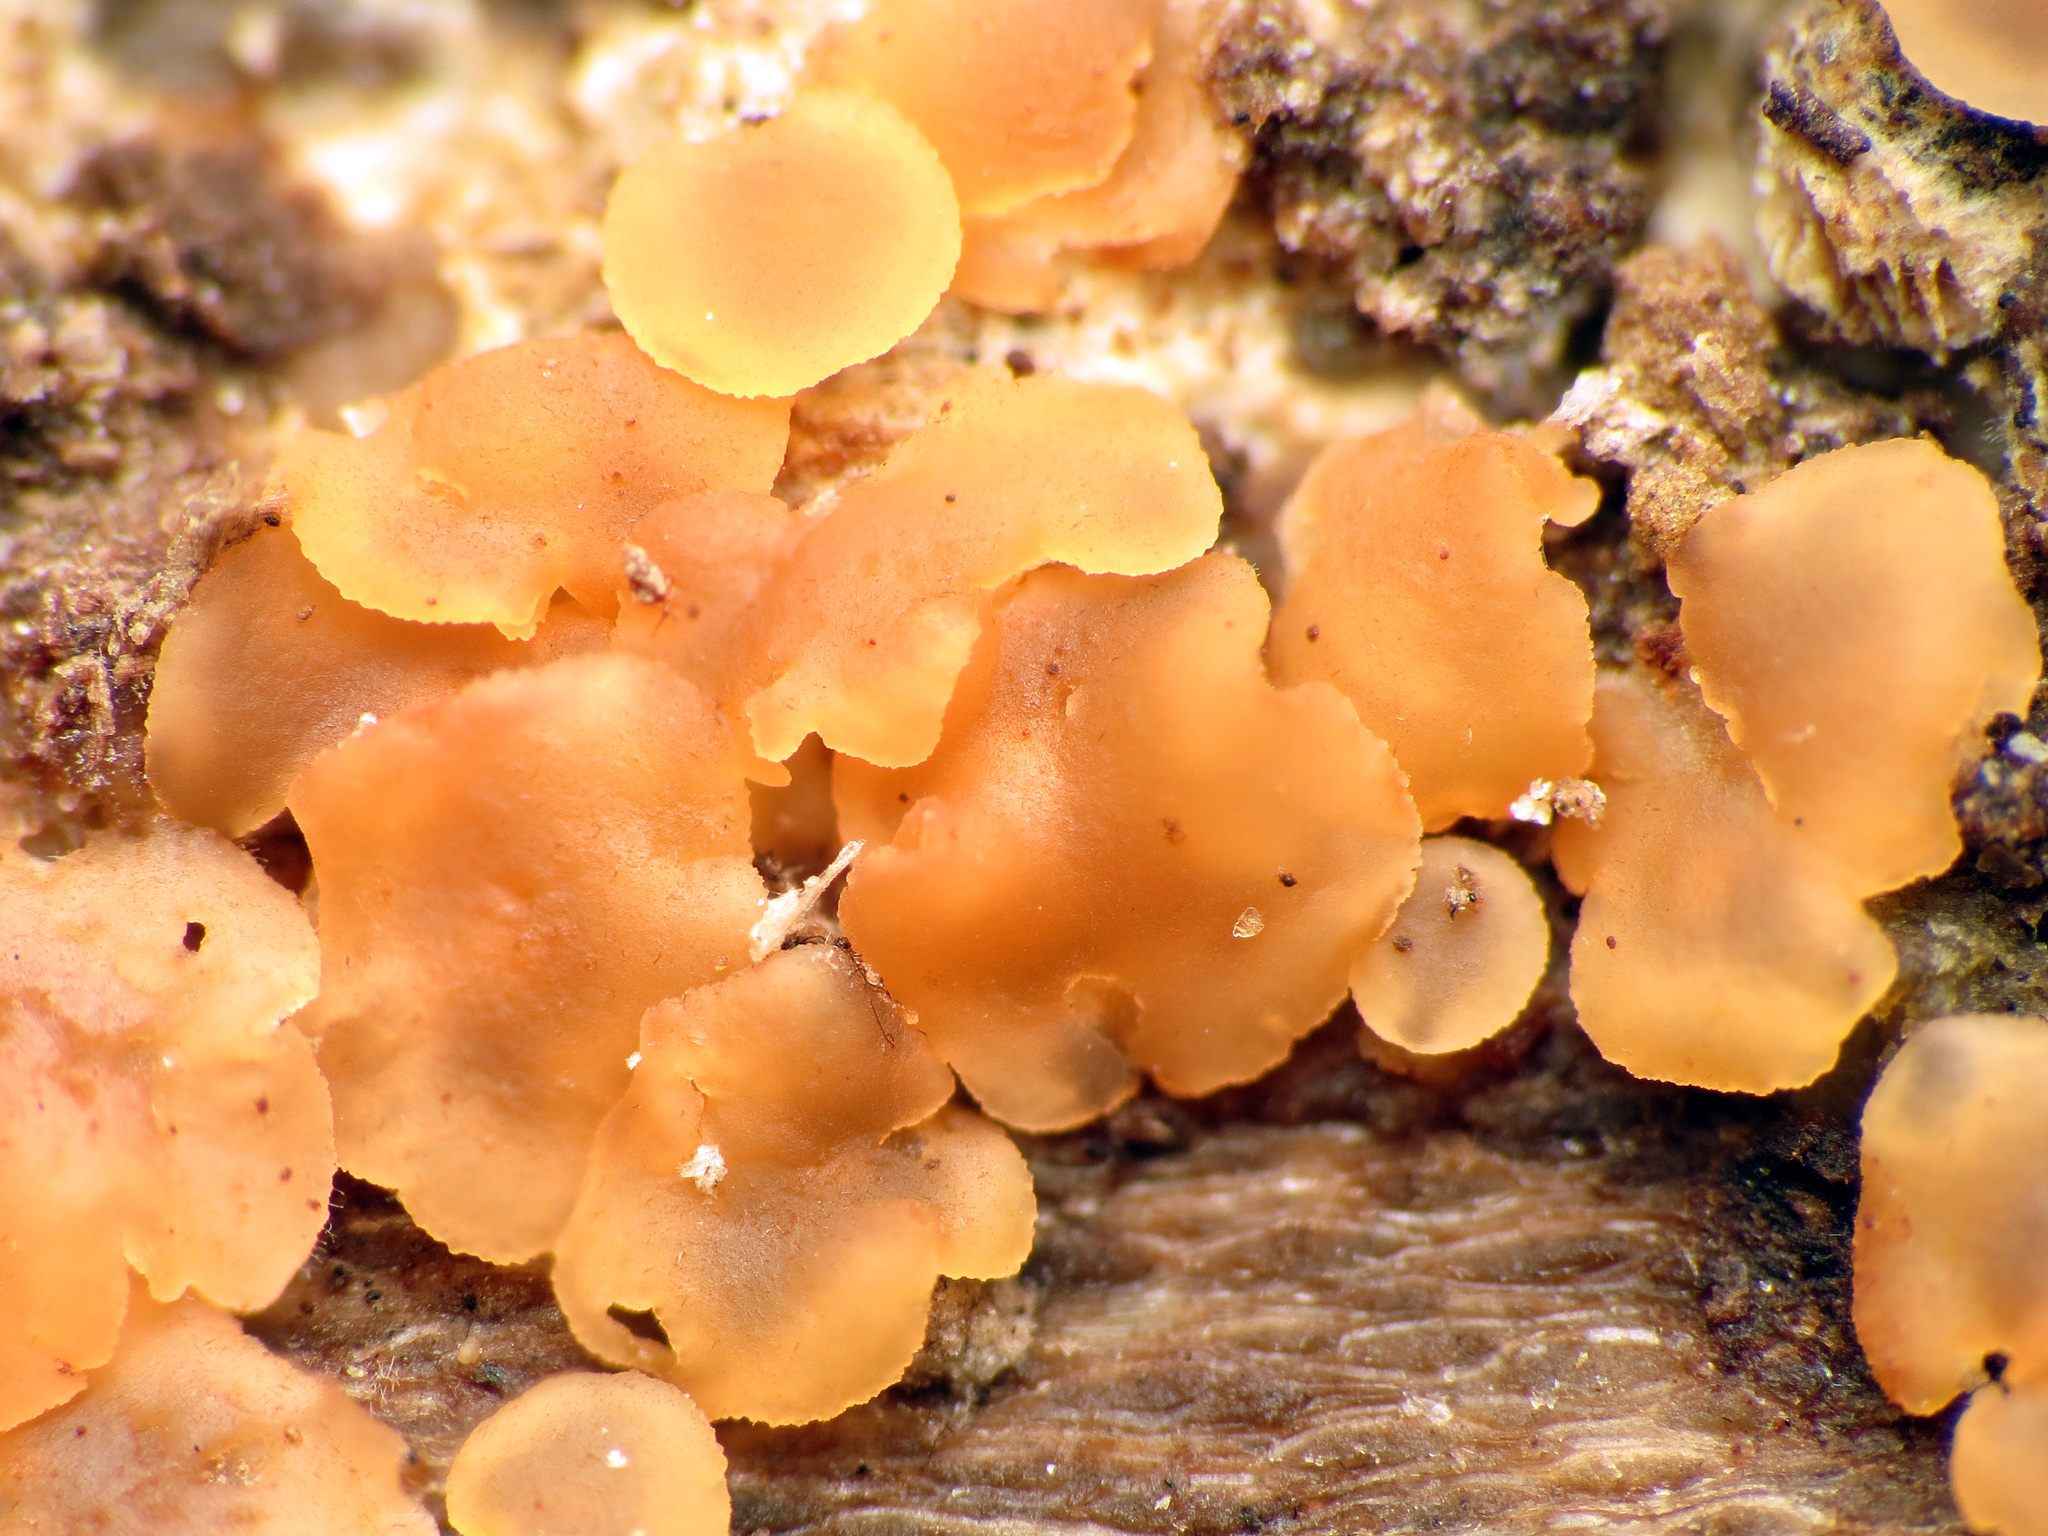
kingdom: Fungi
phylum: Ascomycota
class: Orbiliomycetes
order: Orbiliales
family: Orbiliaceae
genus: Orbilia
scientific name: Orbilia
